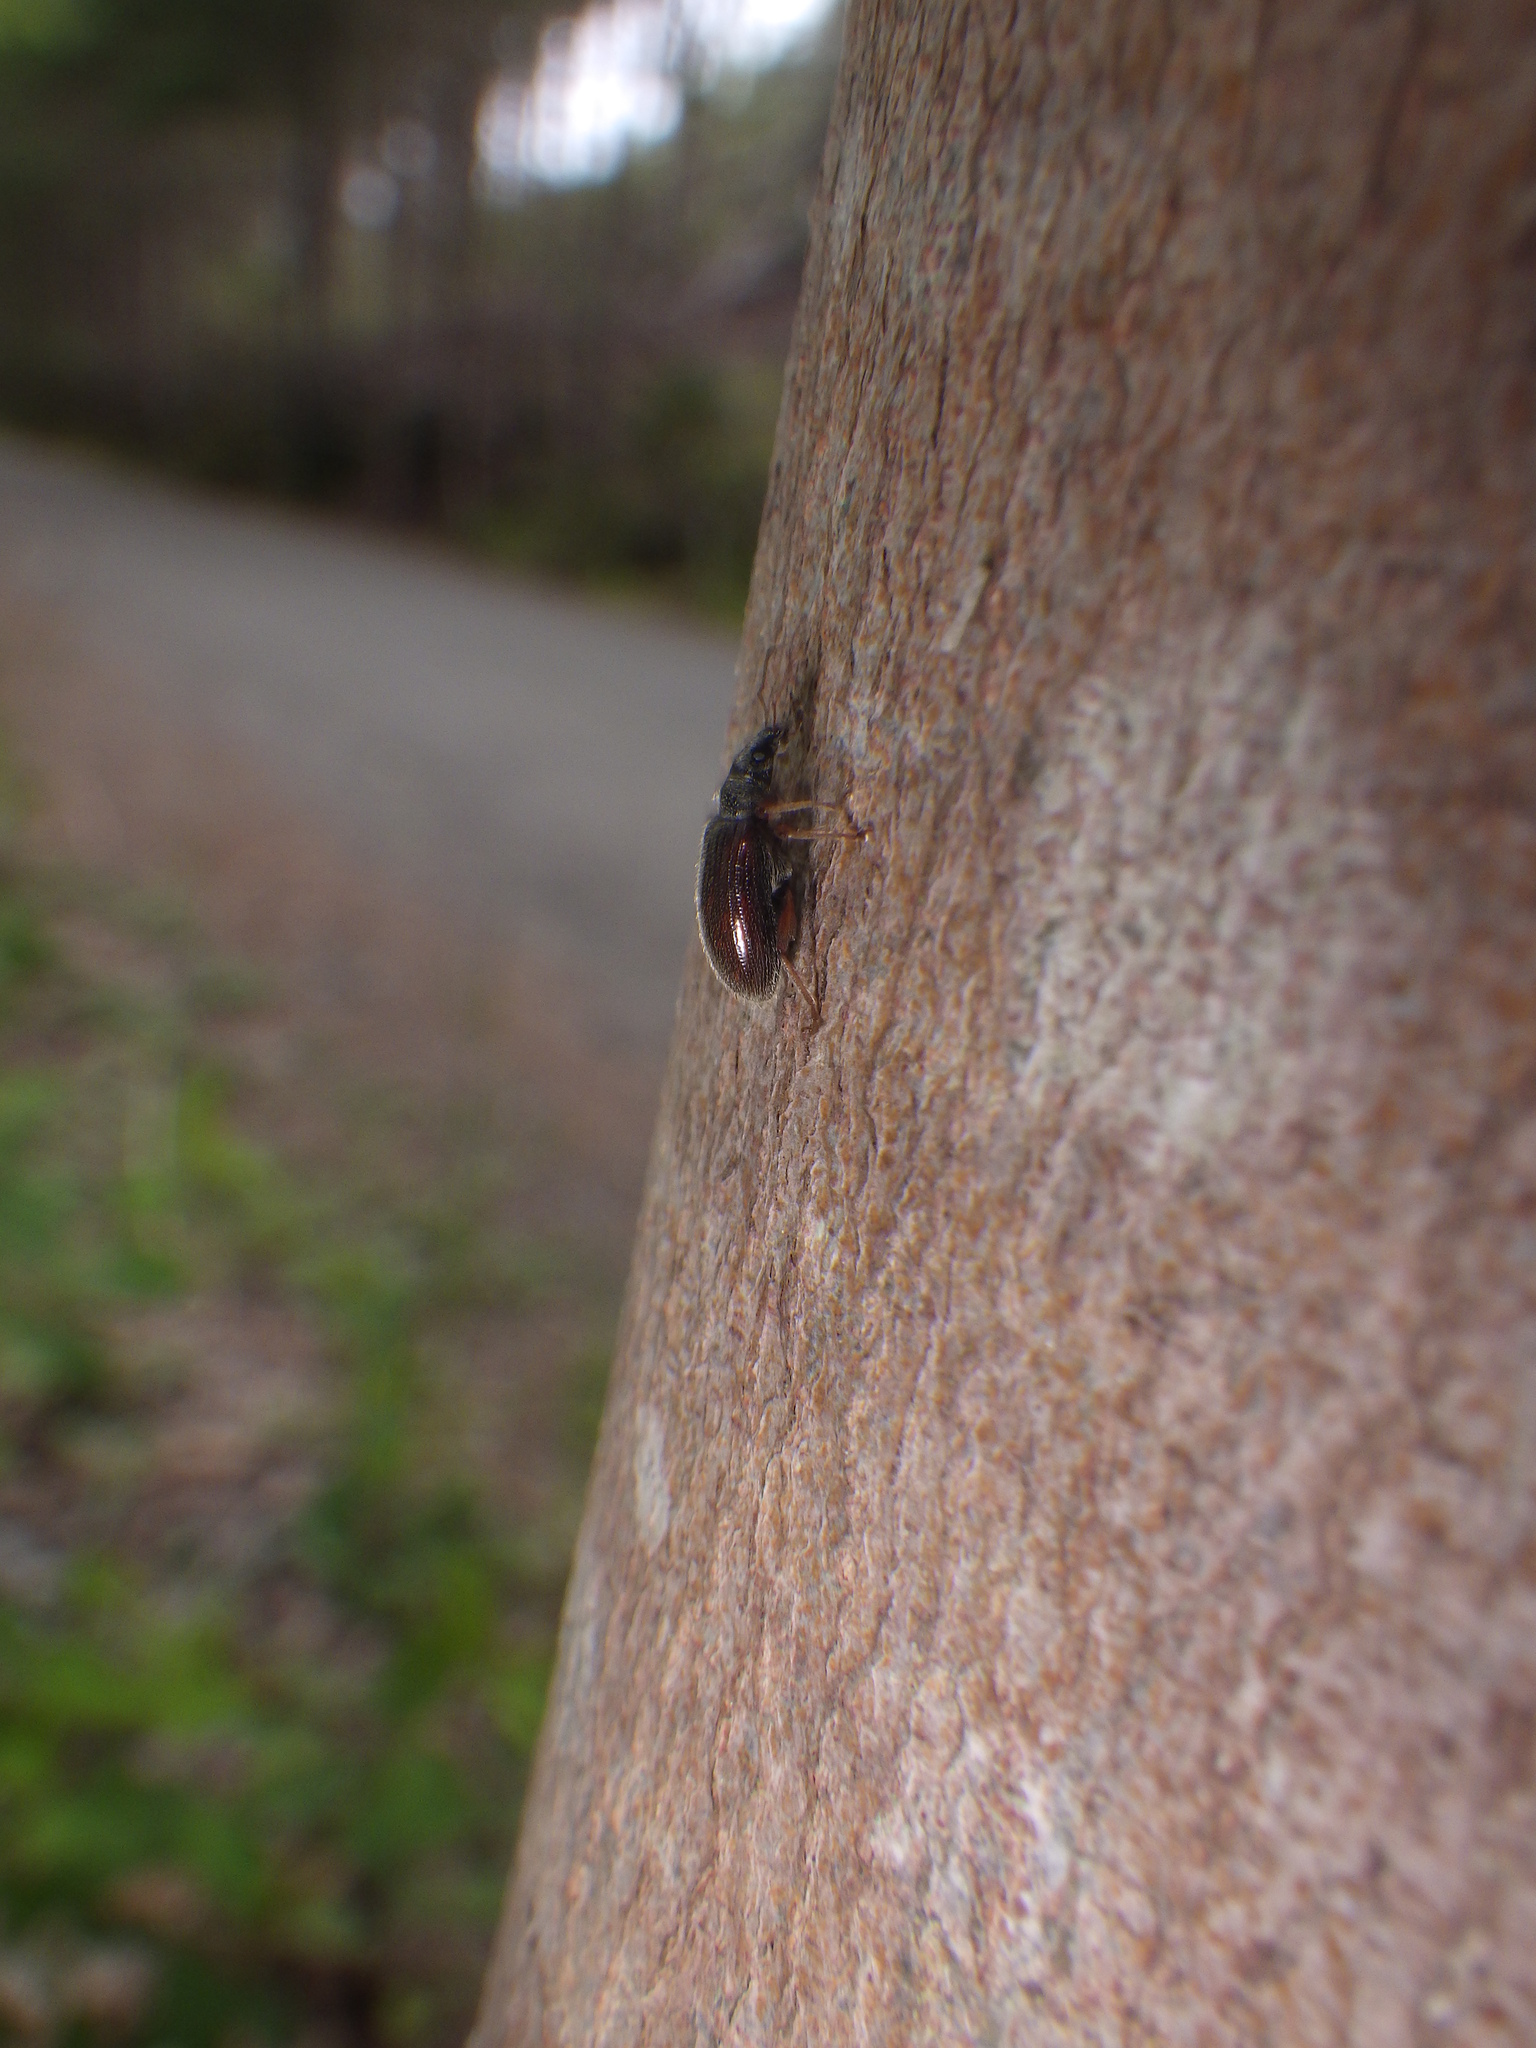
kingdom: Animalia
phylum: Arthropoda
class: Insecta
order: Coleoptera
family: Curculionidae
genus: Phyllobius
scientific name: Phyllobius oblongus
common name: Brown leaf weevil
